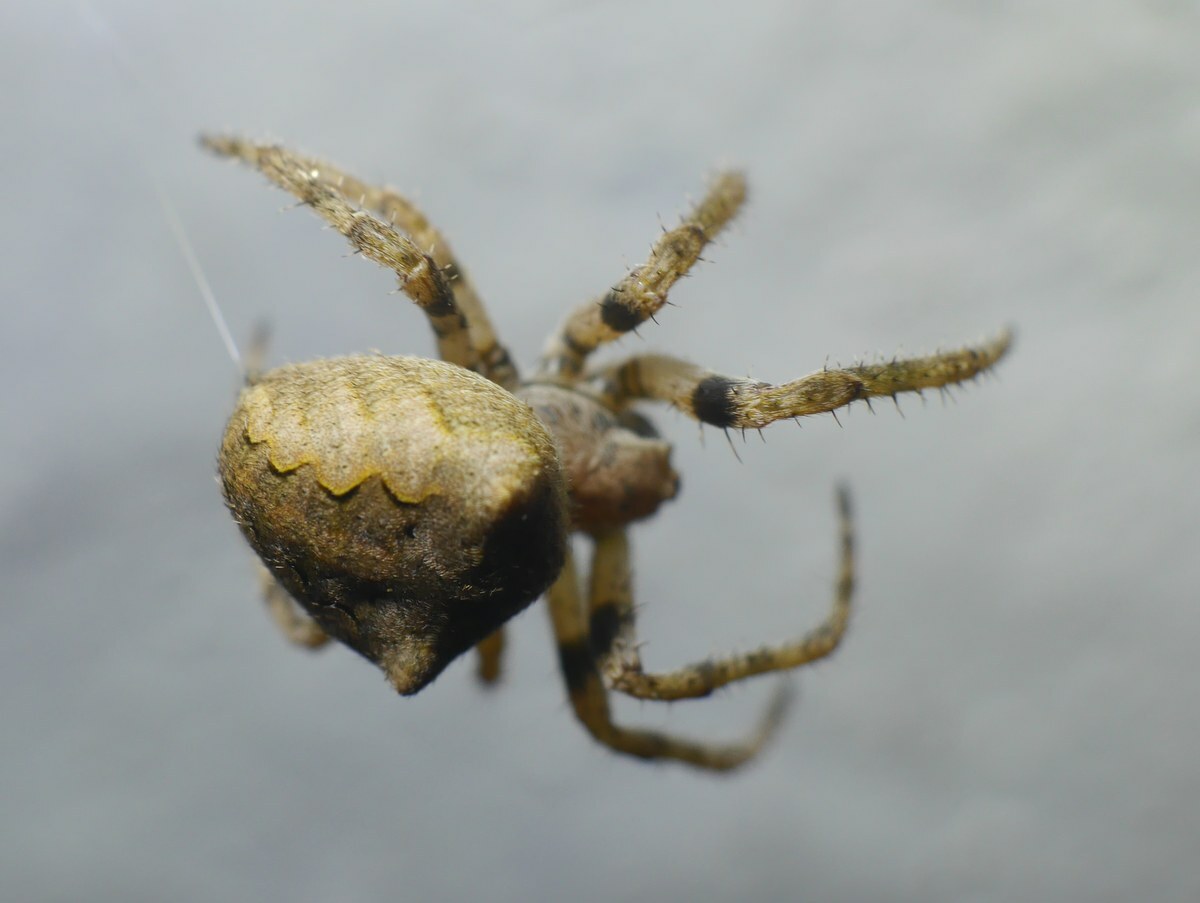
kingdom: Animalia
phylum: Arthropoda
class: Arachnida
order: Araneae
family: Araneidae
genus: Araneus
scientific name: Araneus angulatus
